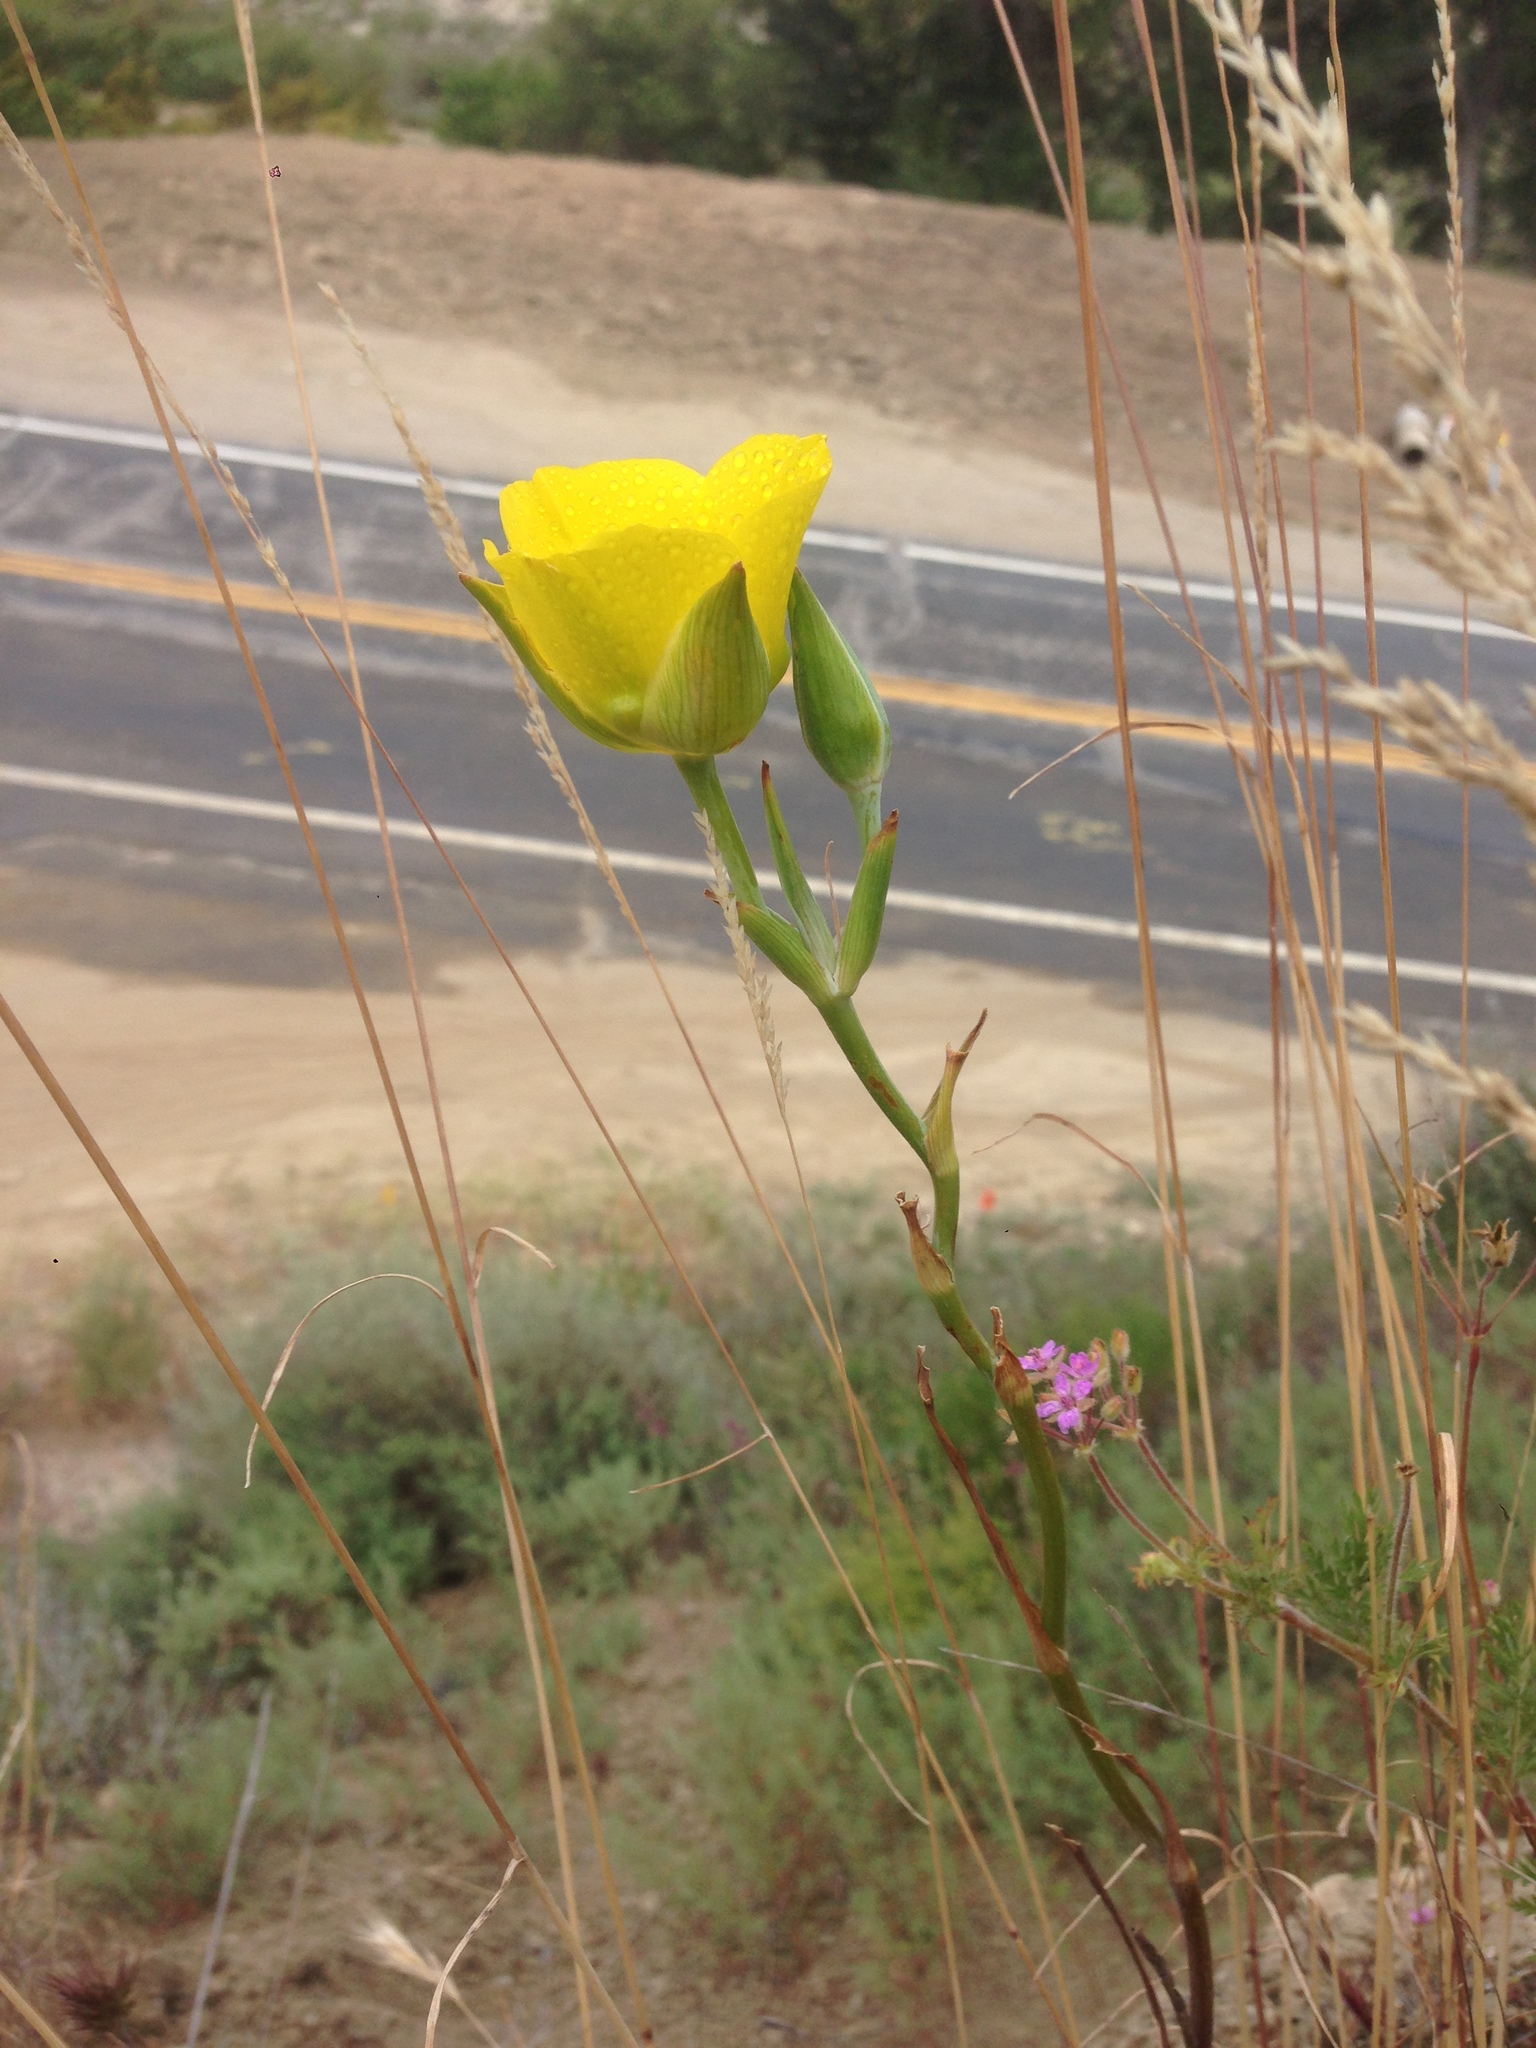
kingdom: Plantae
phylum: Tracheophyta
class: Liliopsida
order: Liliales
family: Liliaceae
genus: Calochortus
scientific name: Calochortus clavatus
